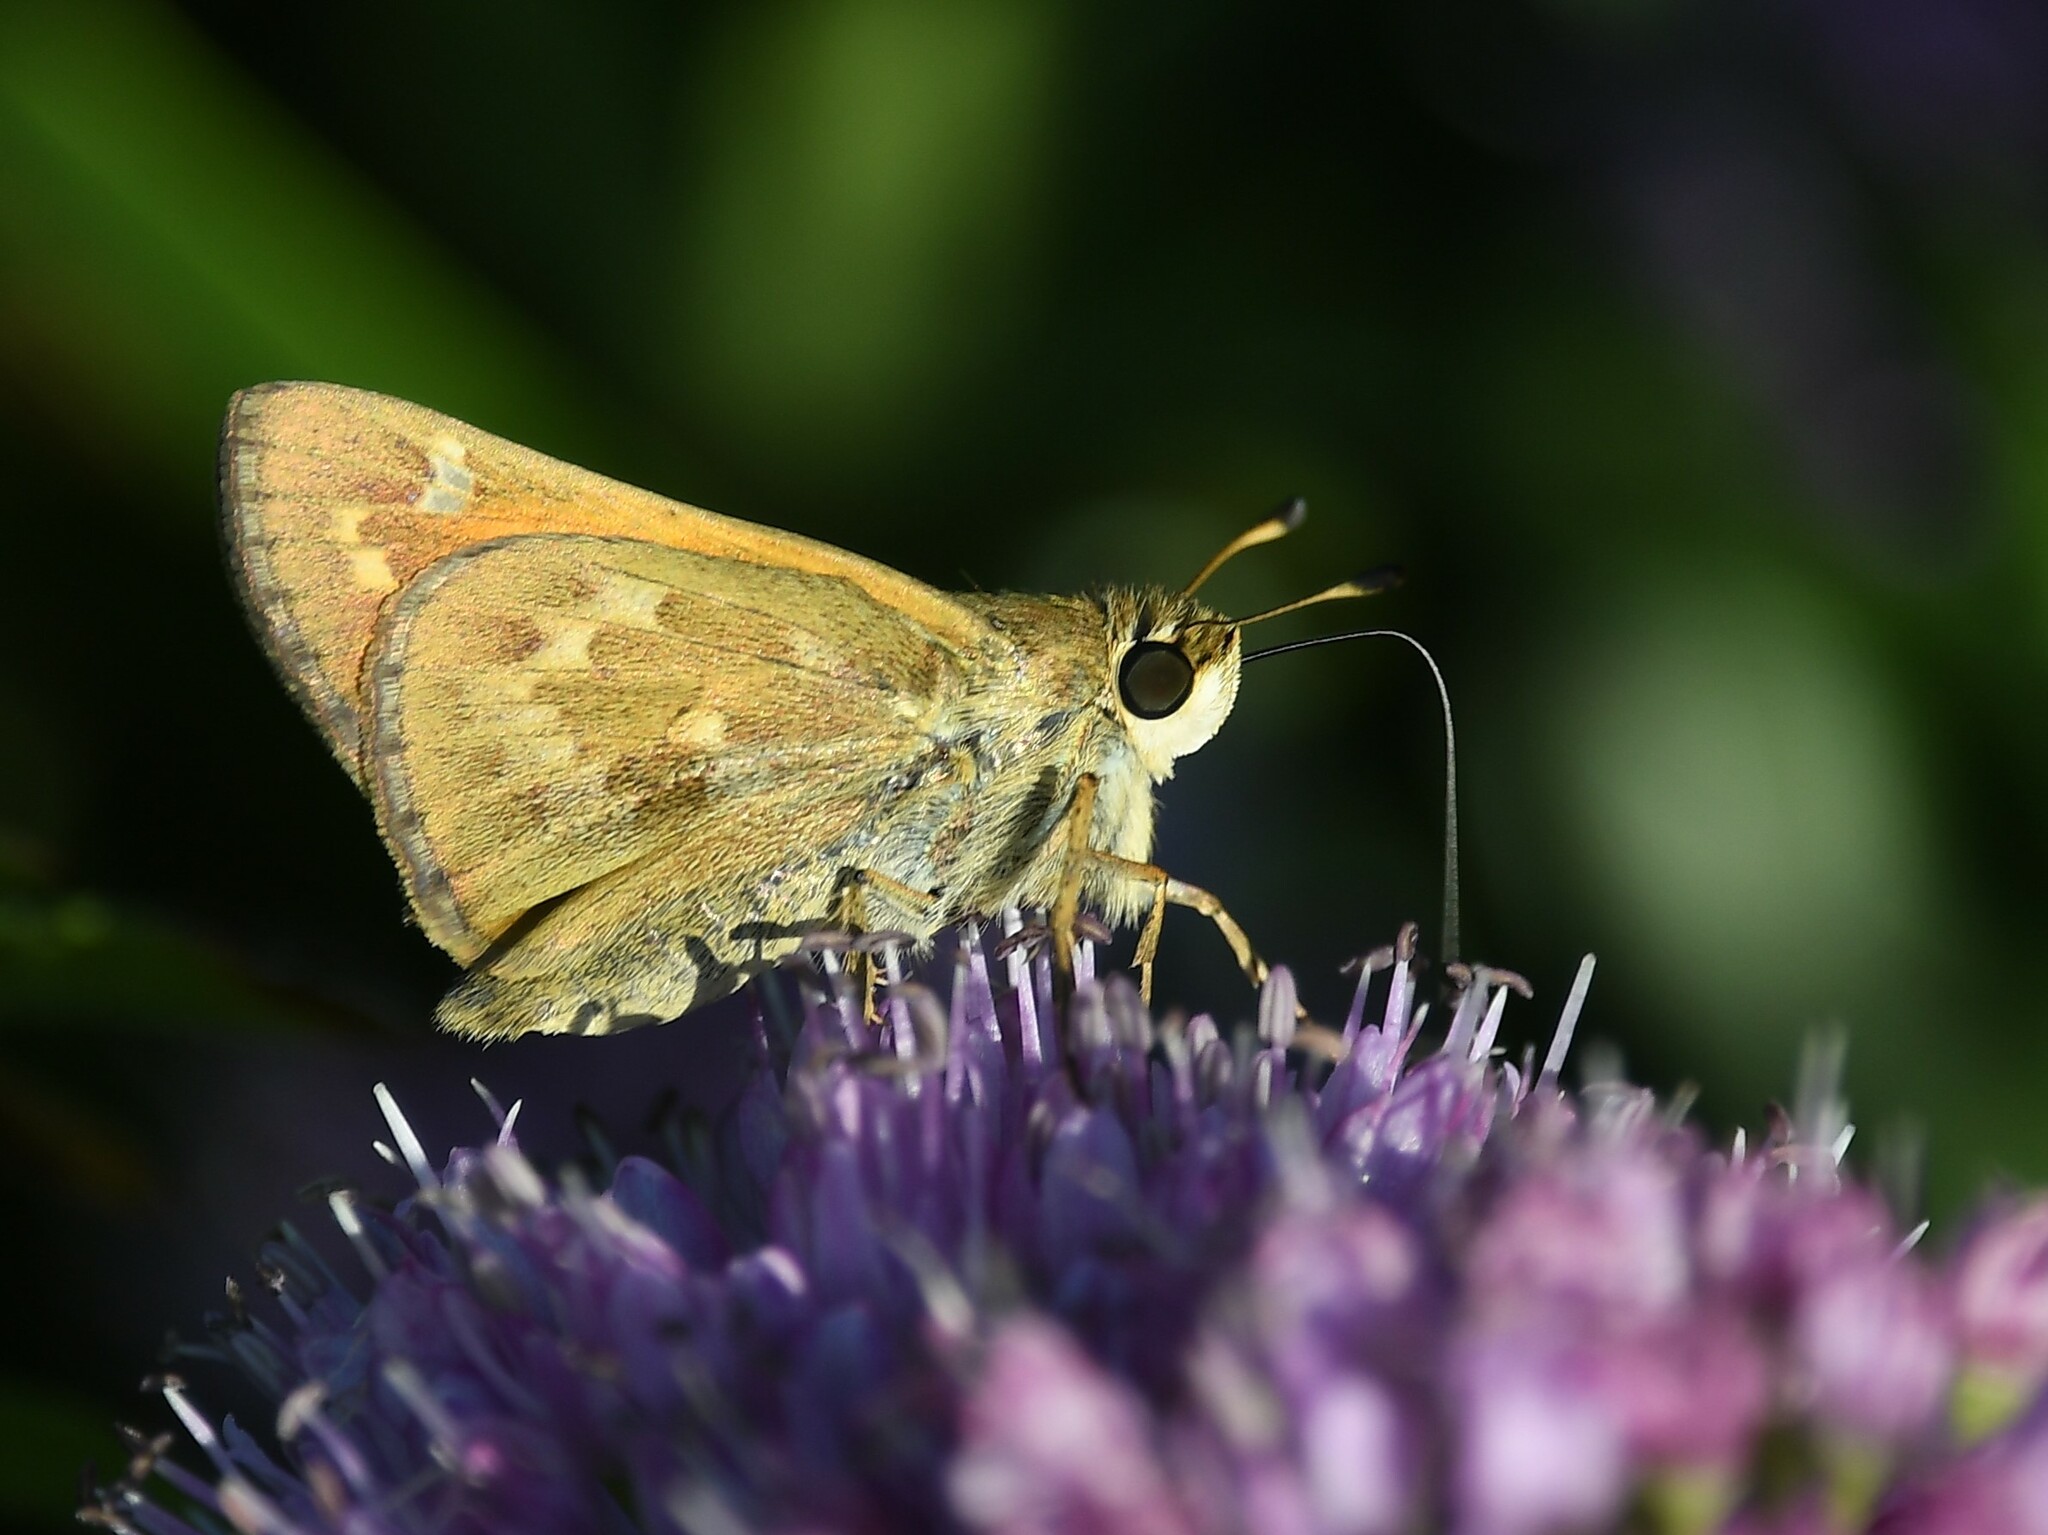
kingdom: Animalia
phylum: Arthropoda
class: Insecta
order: Lepidoptera
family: Hesperiidae
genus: Atalopedes
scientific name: Atalopedes
